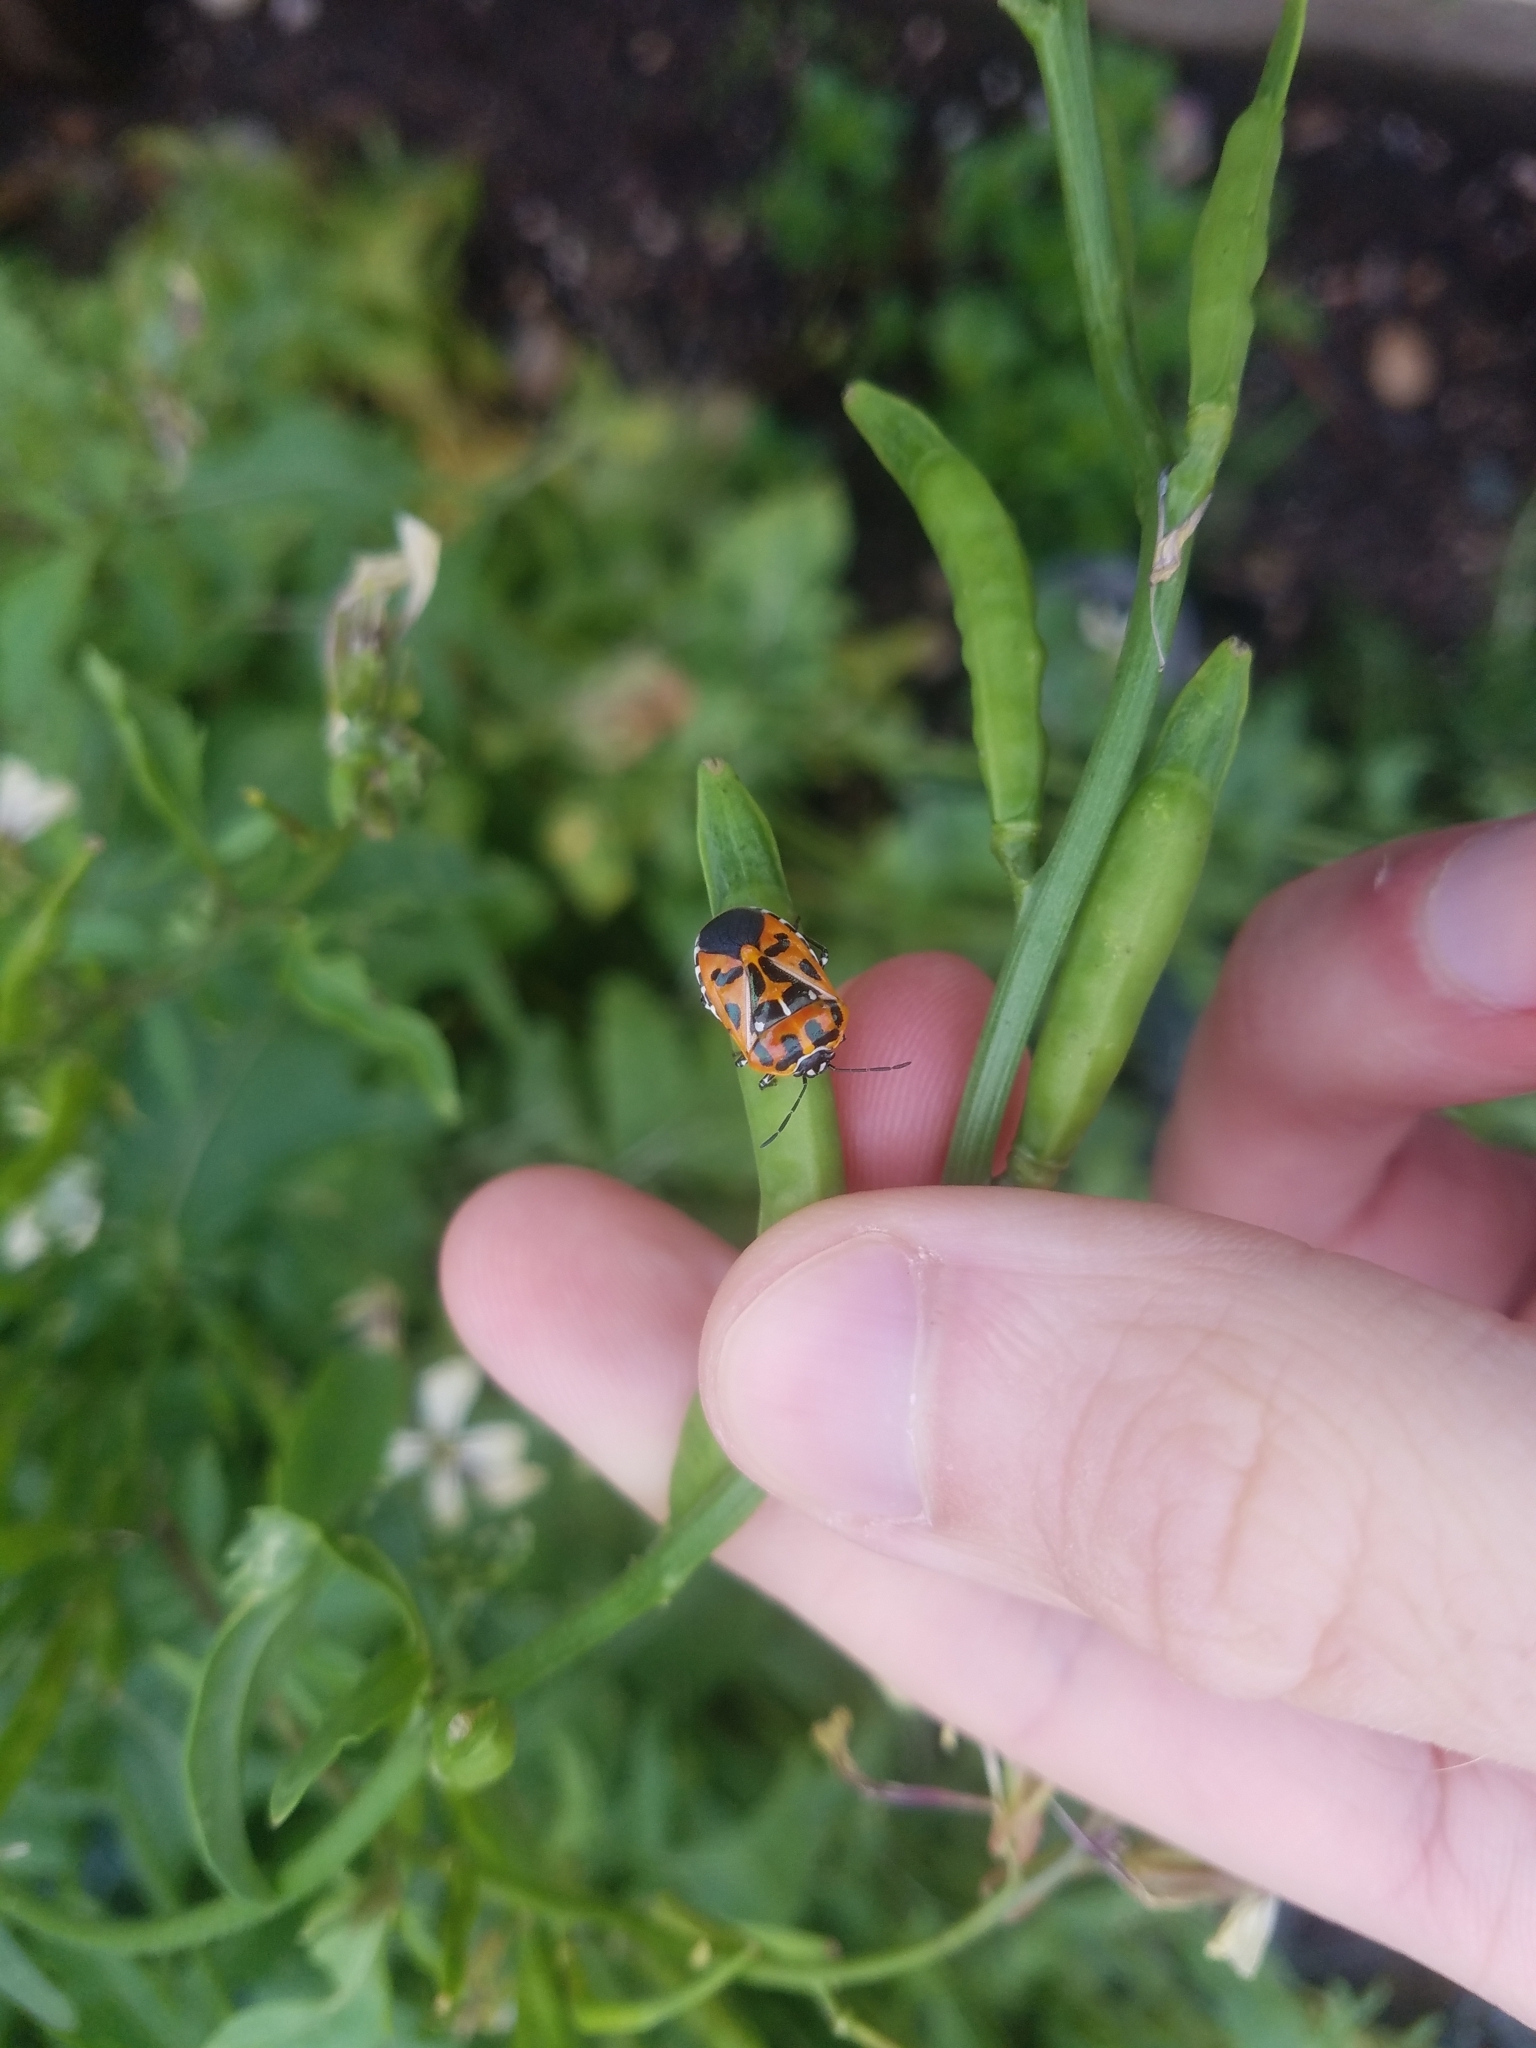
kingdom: Animalia
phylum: Arthropoda
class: Insecta
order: Hemiptera
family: Pentatomidae
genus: Murgantia
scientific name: Murgantia histrionica
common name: Harlequin bug
